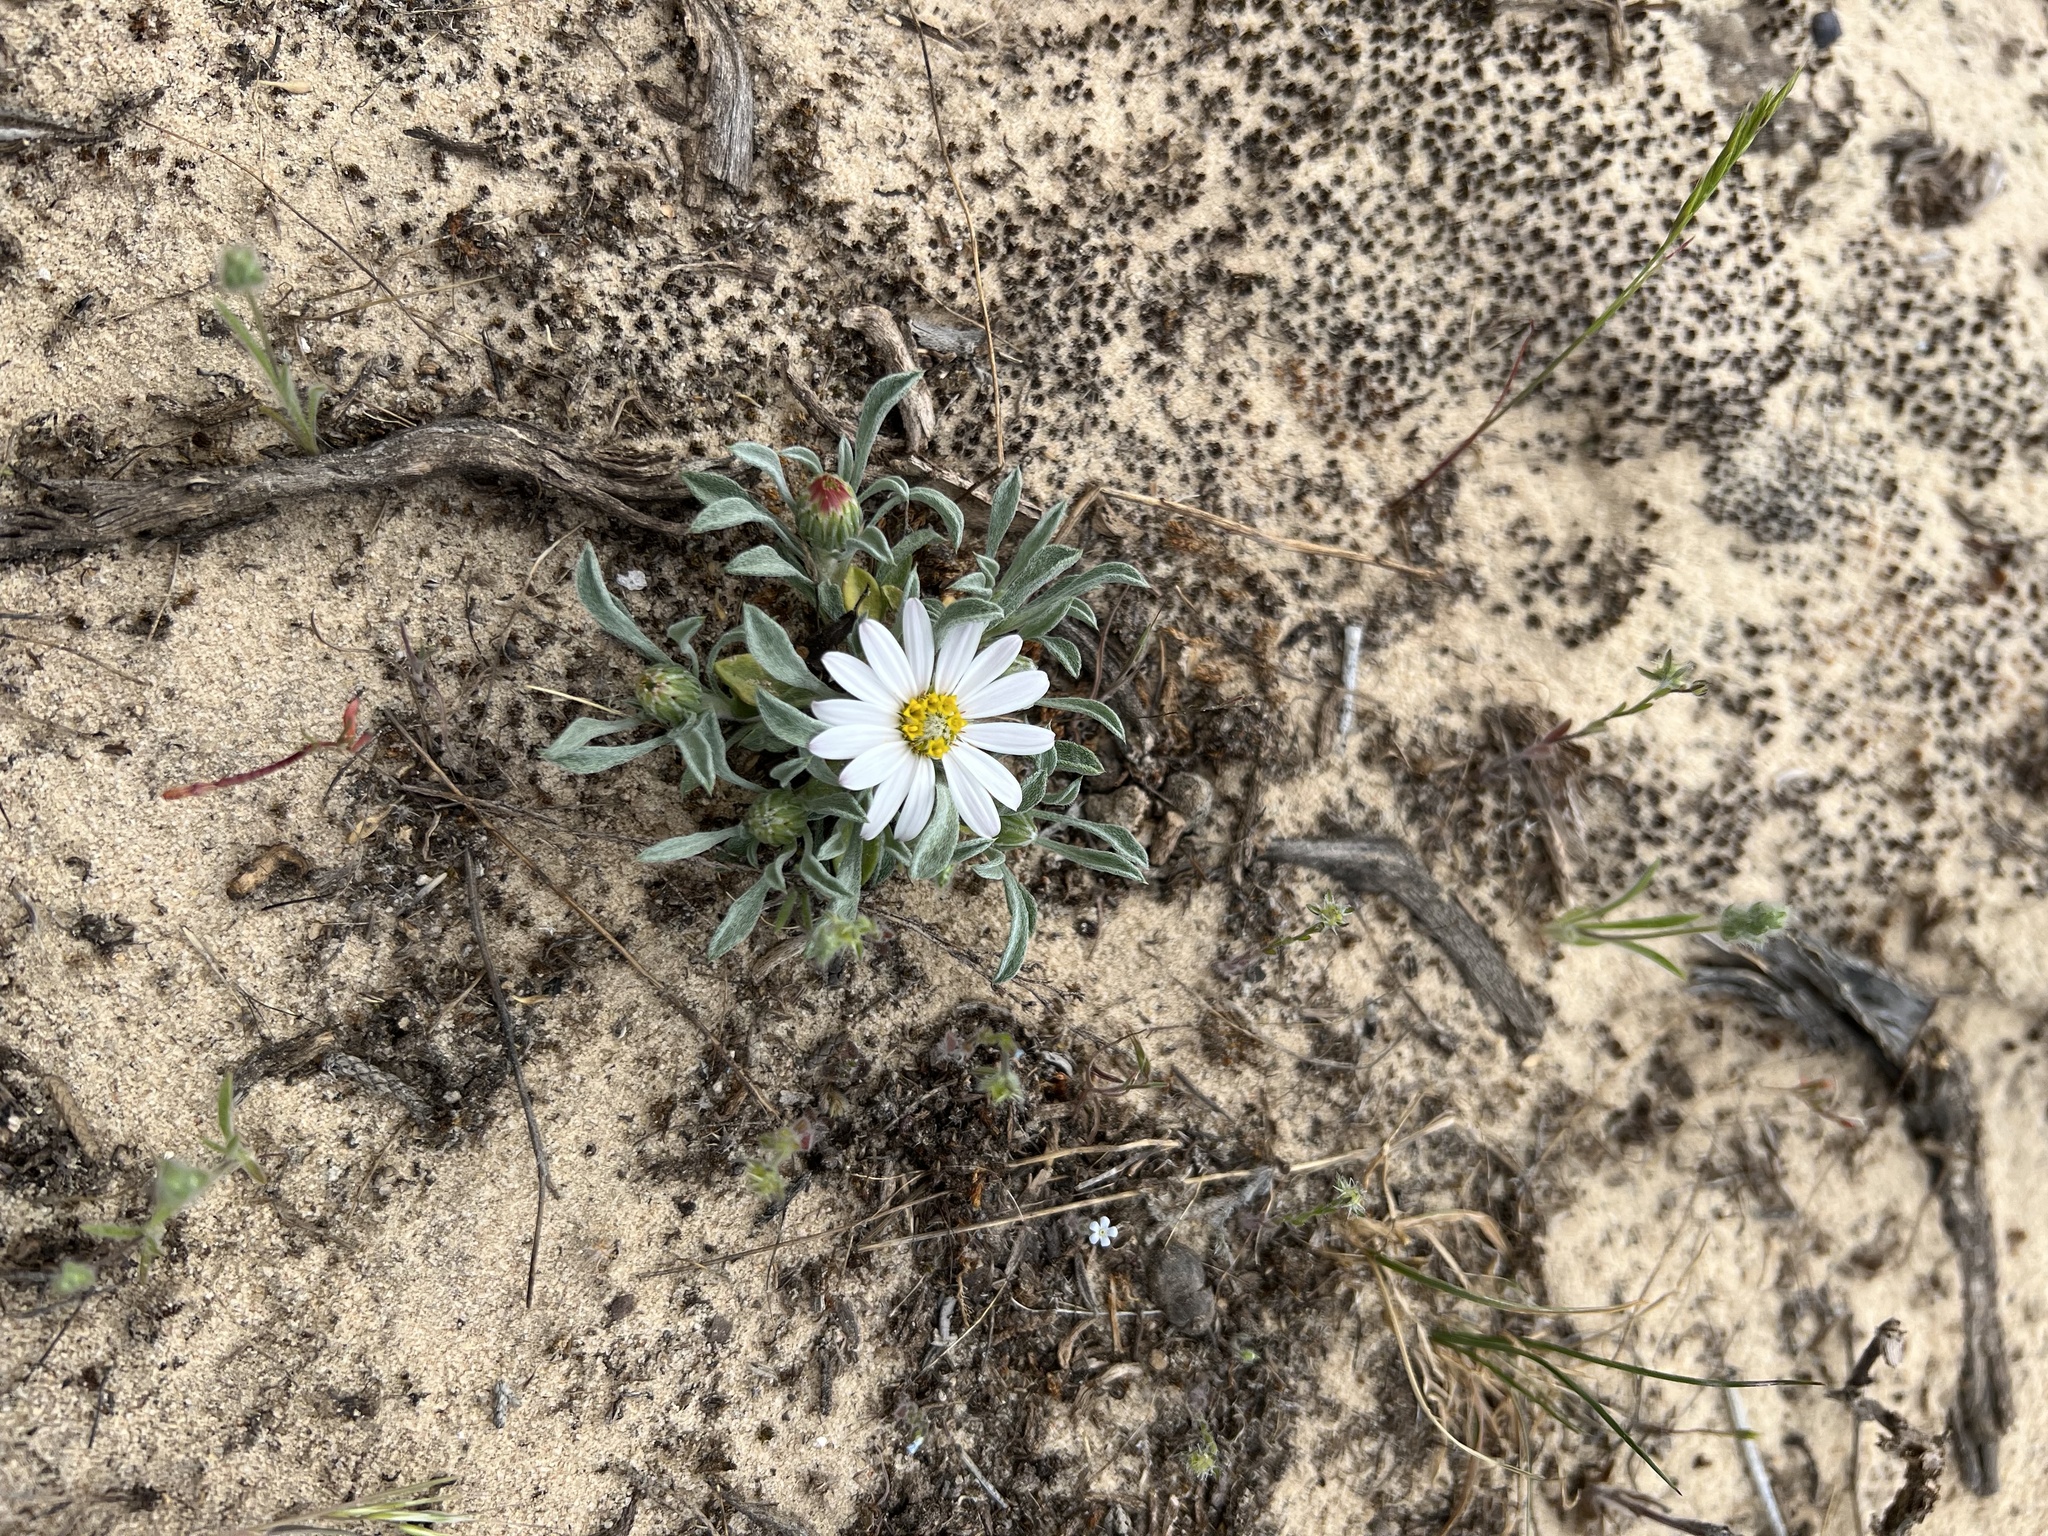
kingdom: Plantae
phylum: Tracheophyta
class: Magnoliopsida
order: Asterales
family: Asteraceae
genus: Townsendia
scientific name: Townsendia incana
